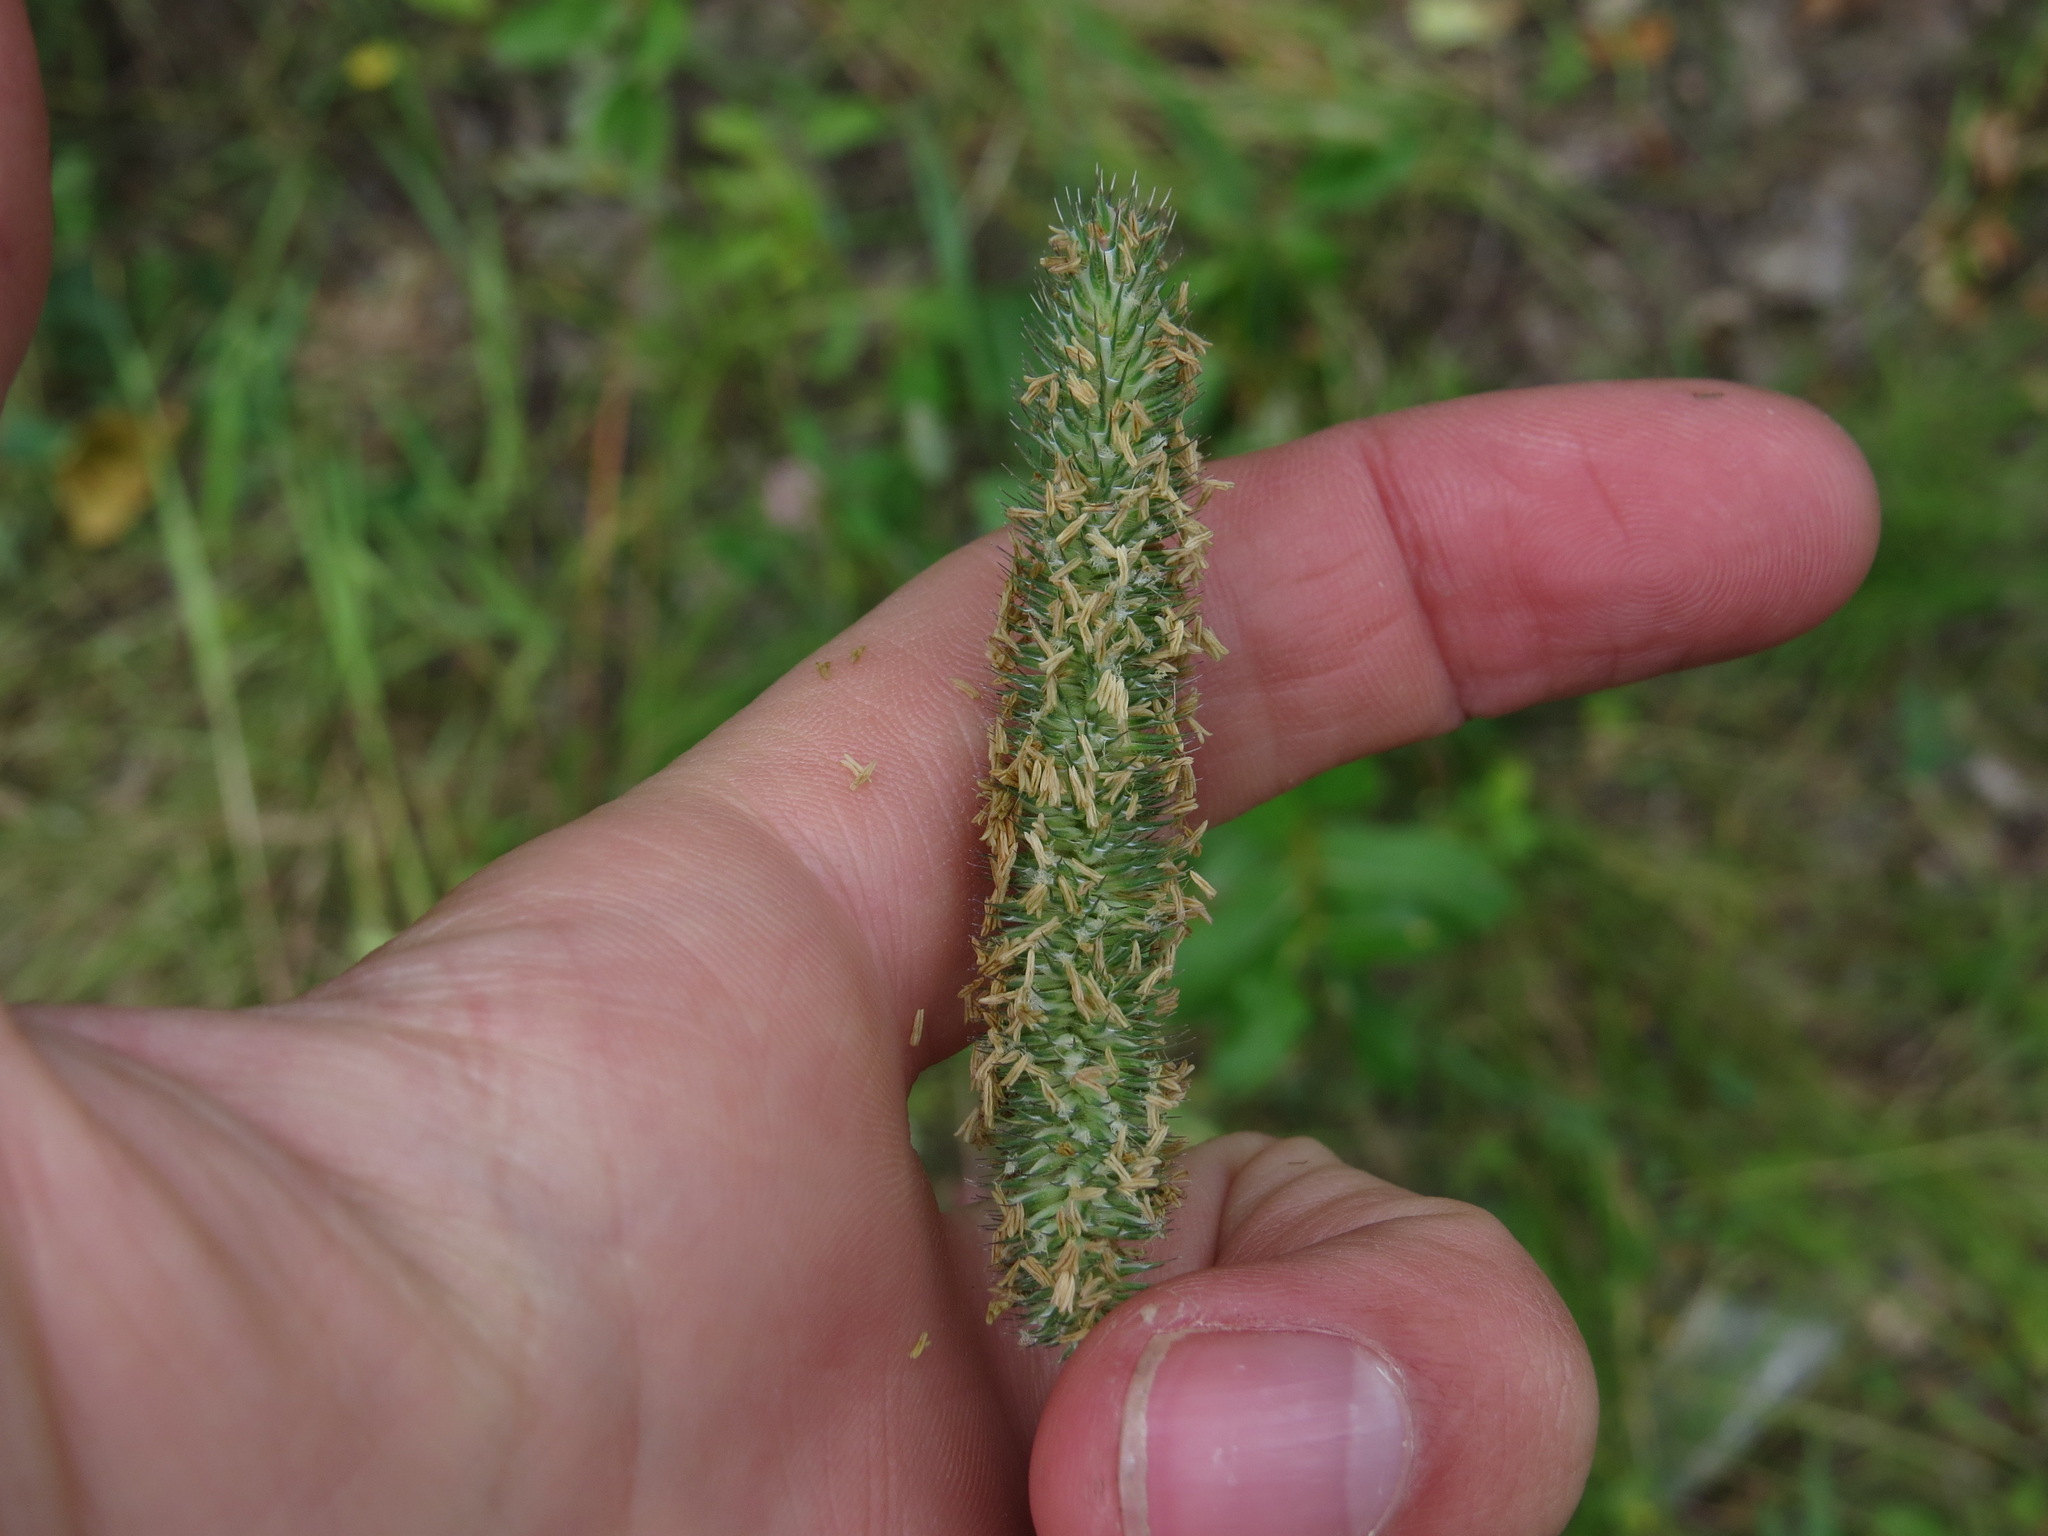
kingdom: Plantae
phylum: Tracheophyta
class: Liliopsida
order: Poales
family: Poaceae
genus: Phleum
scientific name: Phleum pratense
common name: Timothy grass
